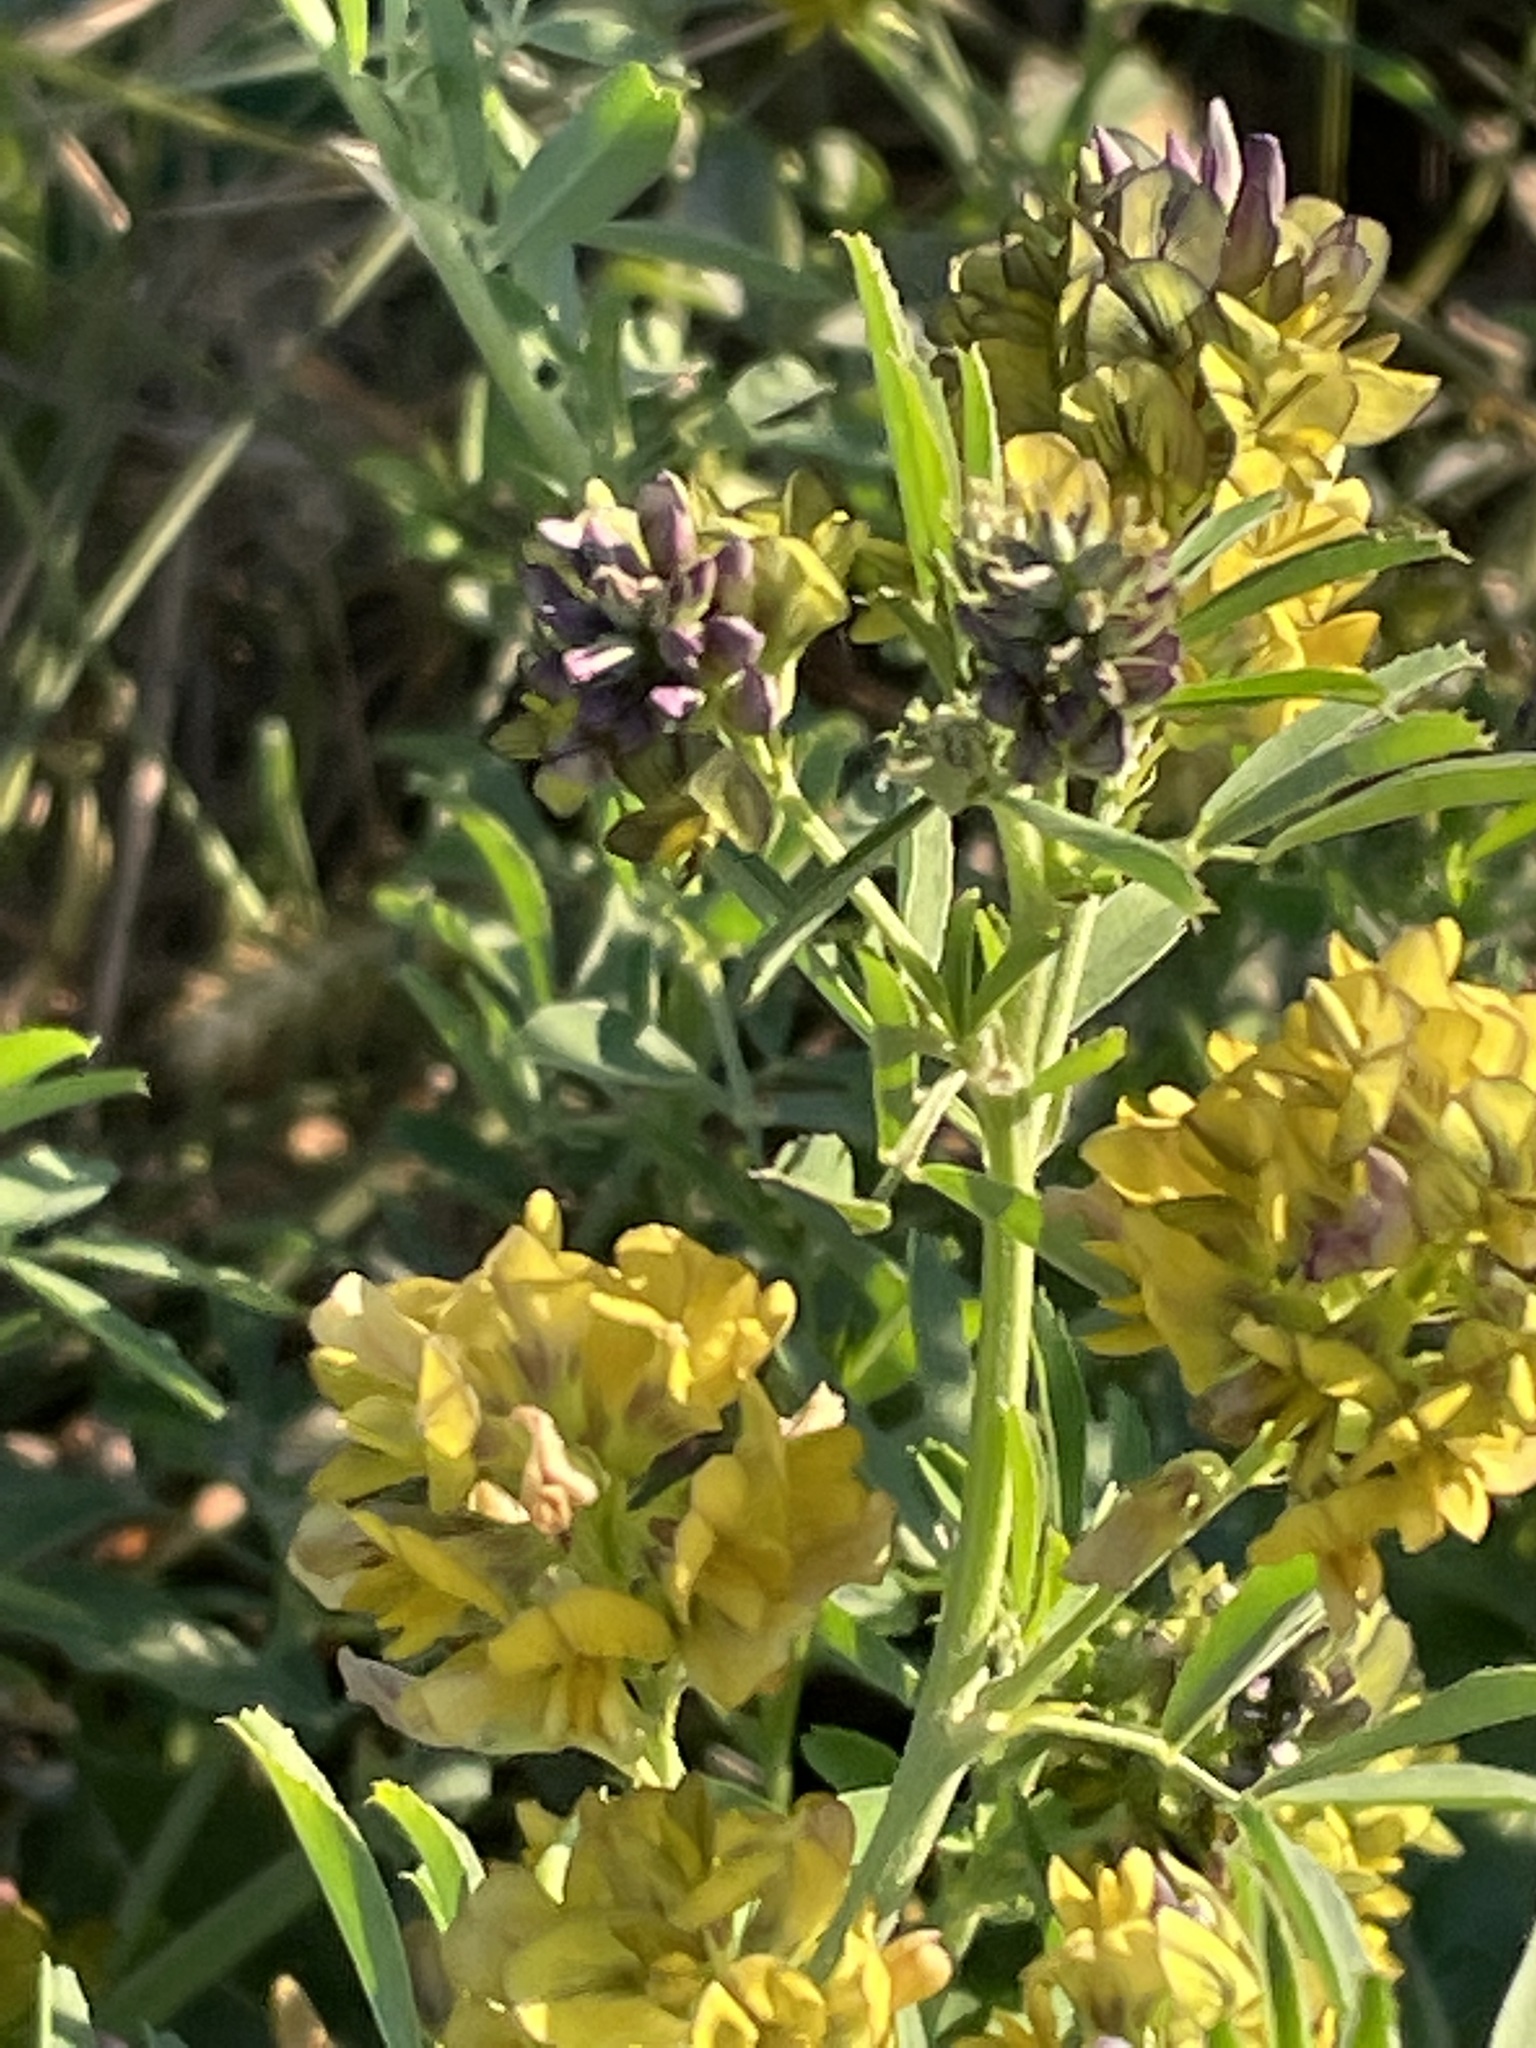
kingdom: Plantae
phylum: Tracheophyta
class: Magnoliopsida
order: Fabales
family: Fabaceae
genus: Medicago
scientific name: Medicago varia
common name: Sand lucerne
